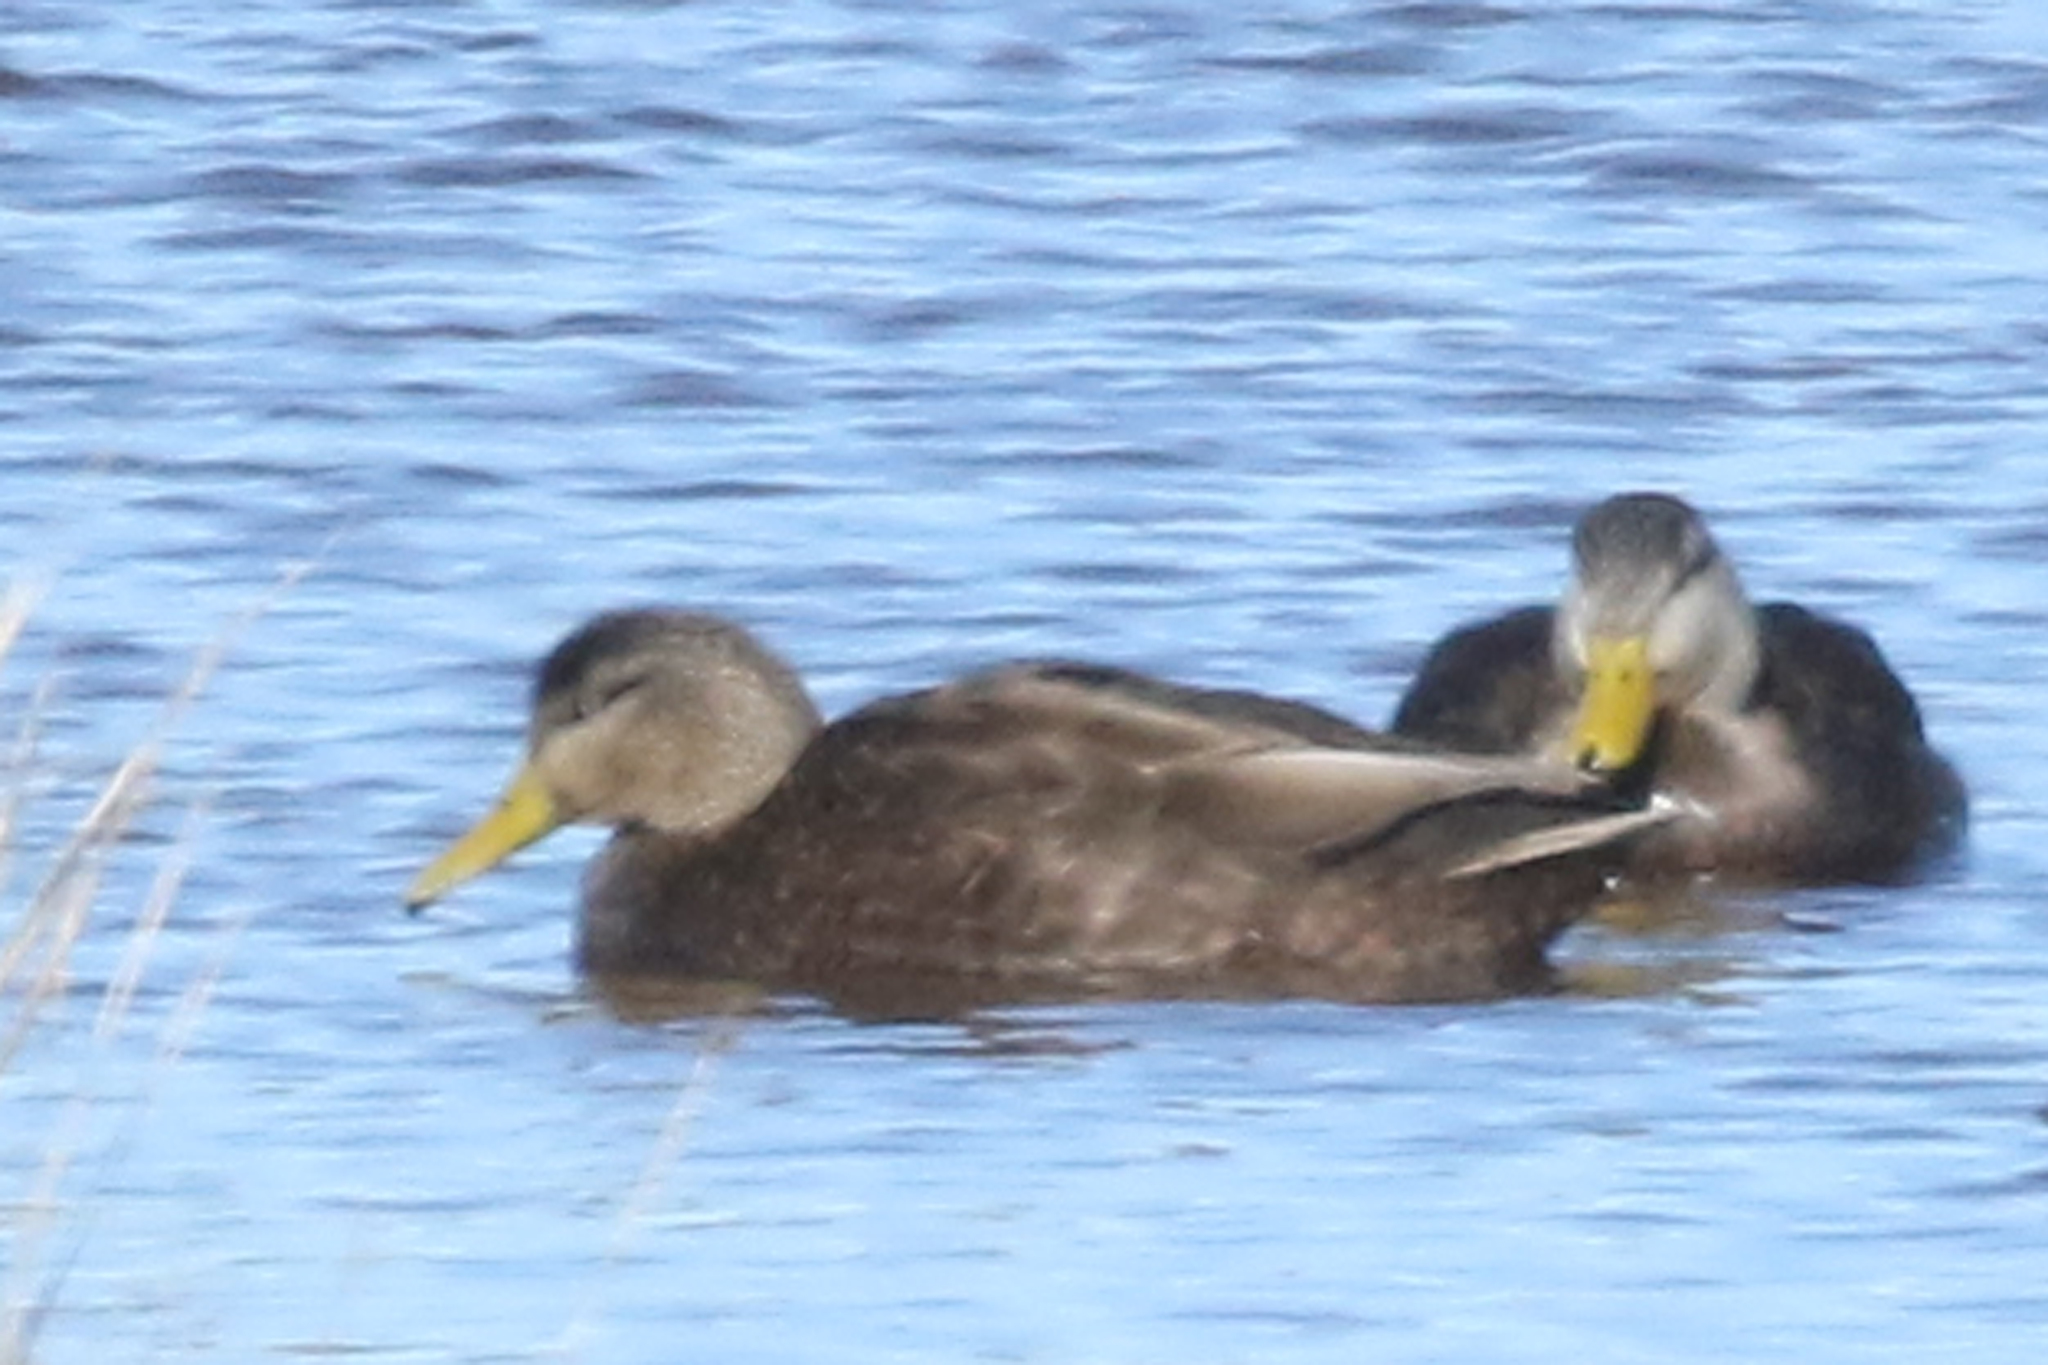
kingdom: Animalia
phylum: Chordata
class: Aves
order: Anseriformes
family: Anatidae
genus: Anas
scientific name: Anas rubripes
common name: American black duck
